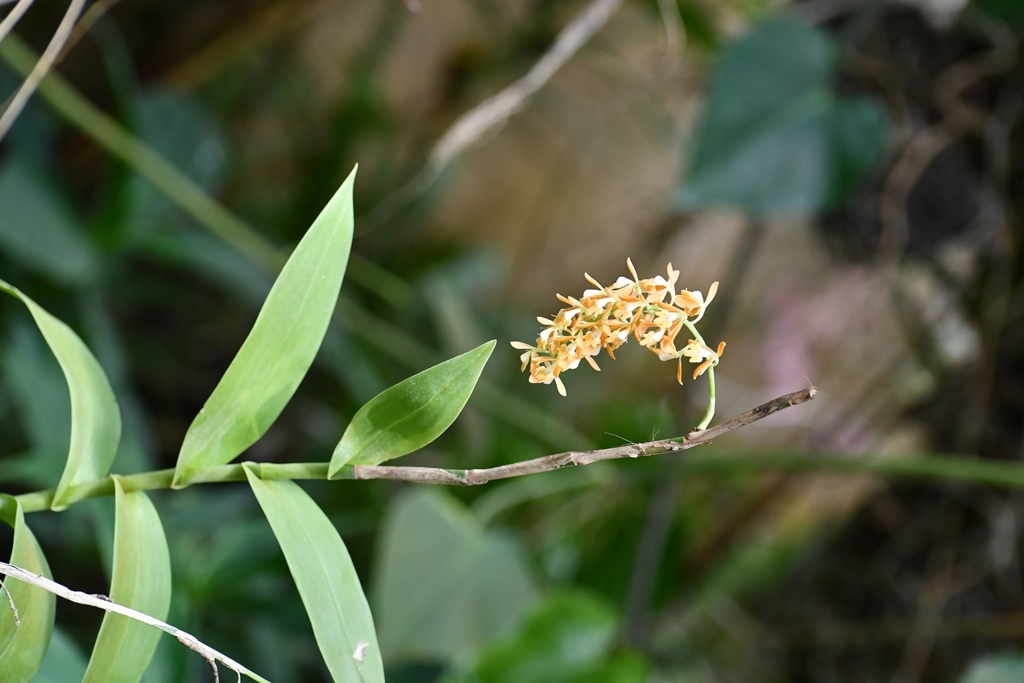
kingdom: Plantae
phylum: Tracheophyta
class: Liliopsida
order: Asparagales
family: Orchidaceae
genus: Epidendrum
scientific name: Epidendrum polyanthum
